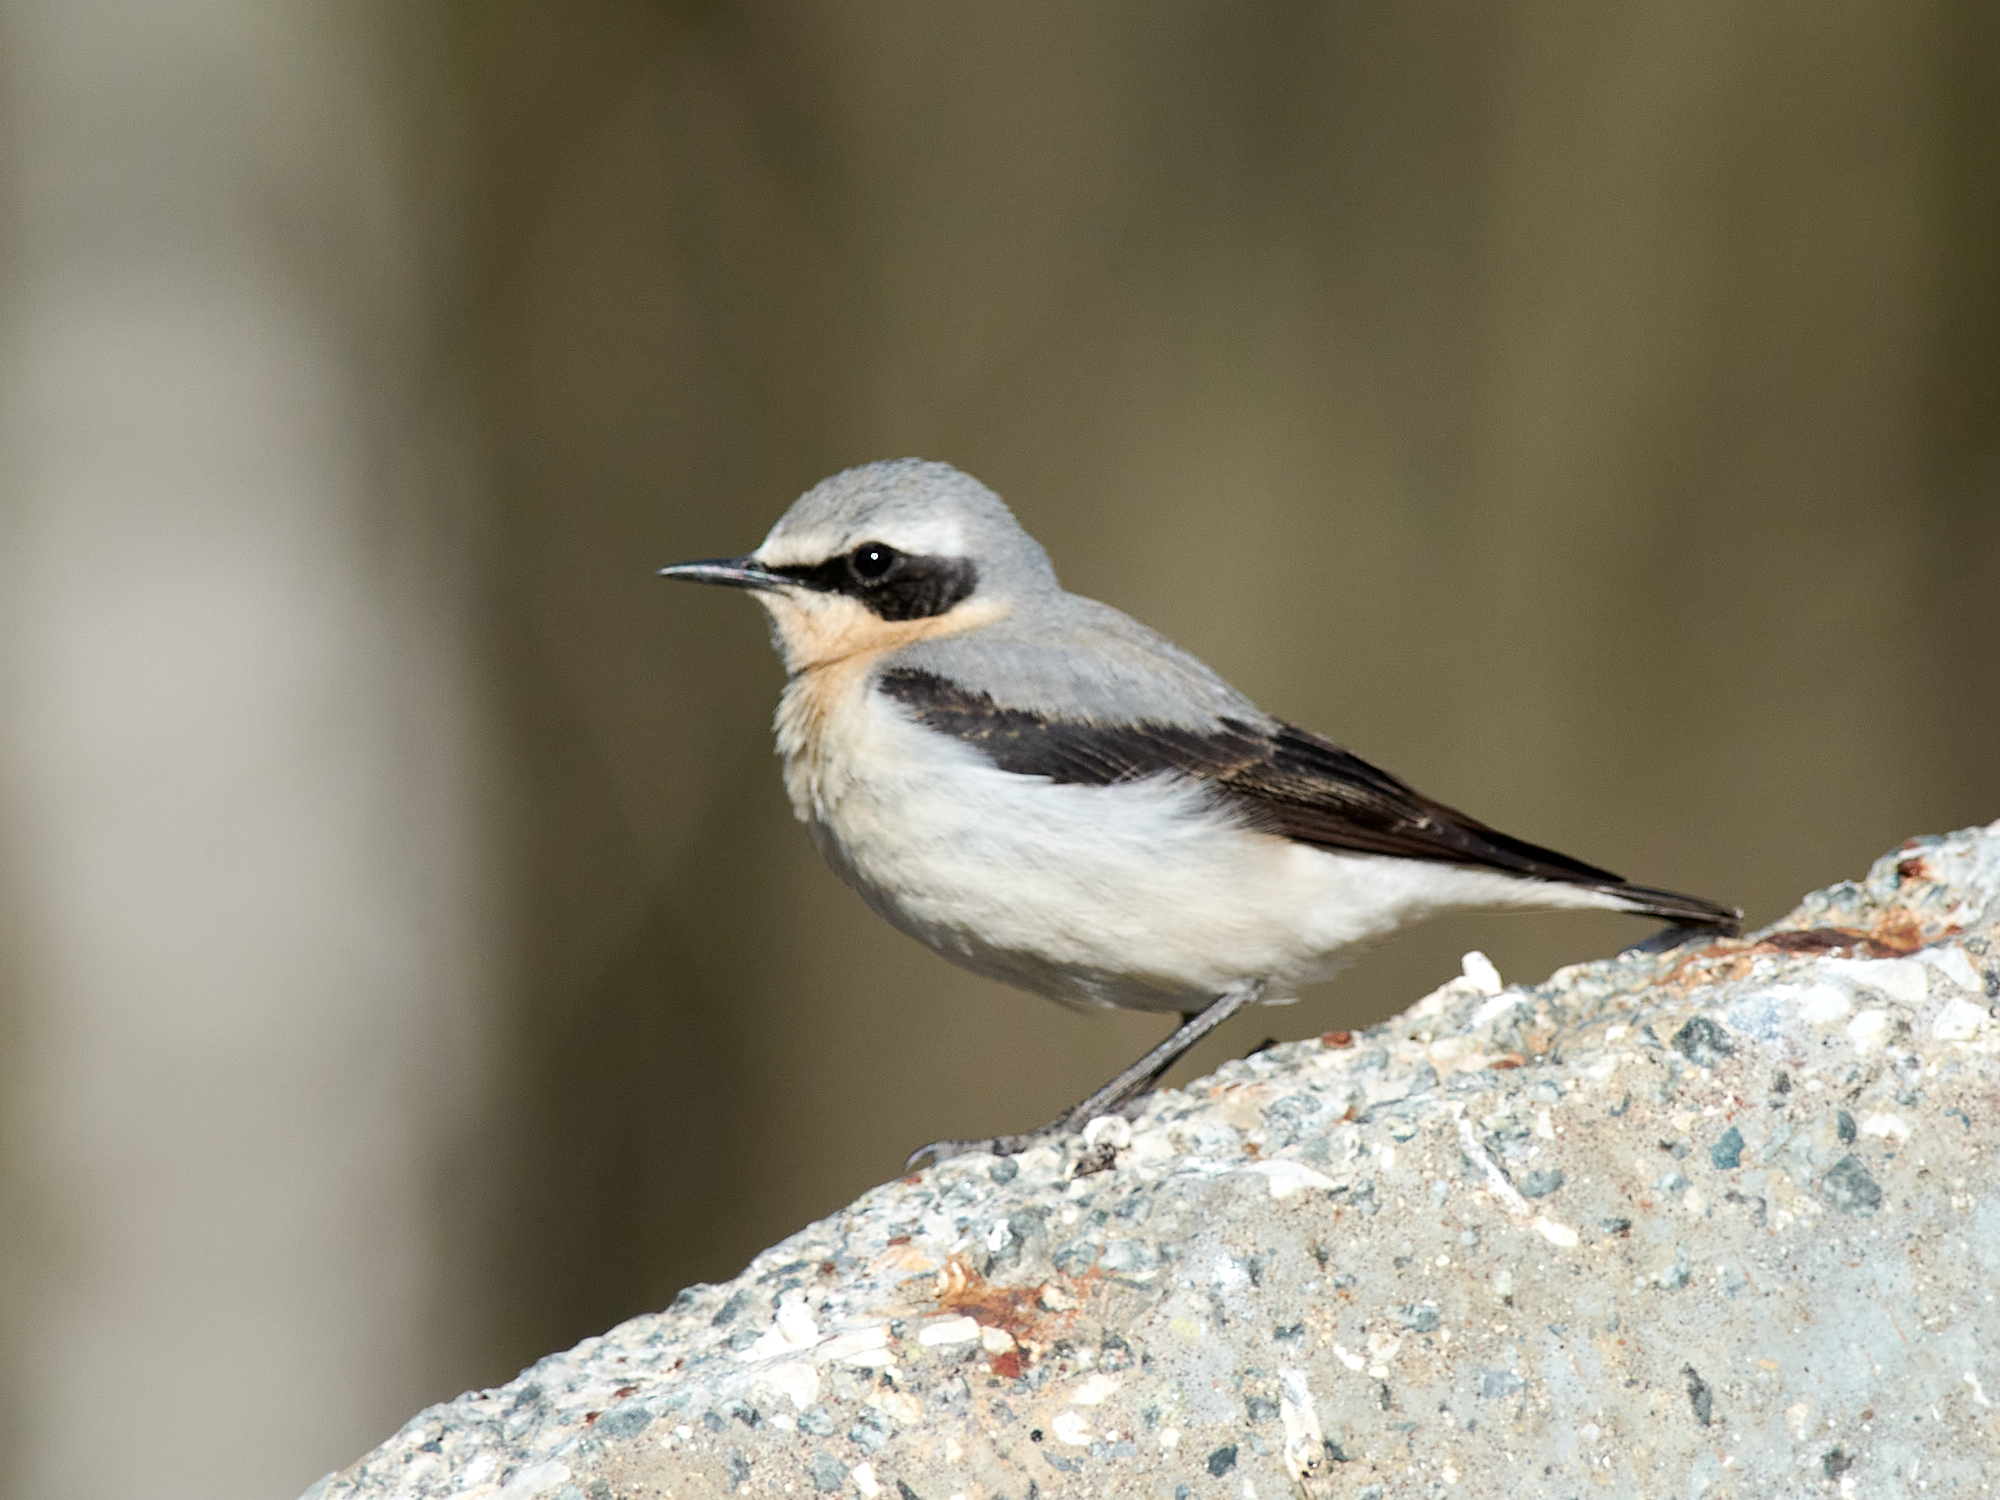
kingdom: Animalia
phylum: Chordata
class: Aves
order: Passeriformes
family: Muscicapidae
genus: Oenanthe
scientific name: Oenanthe oenanthe
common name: Northern wheatear
